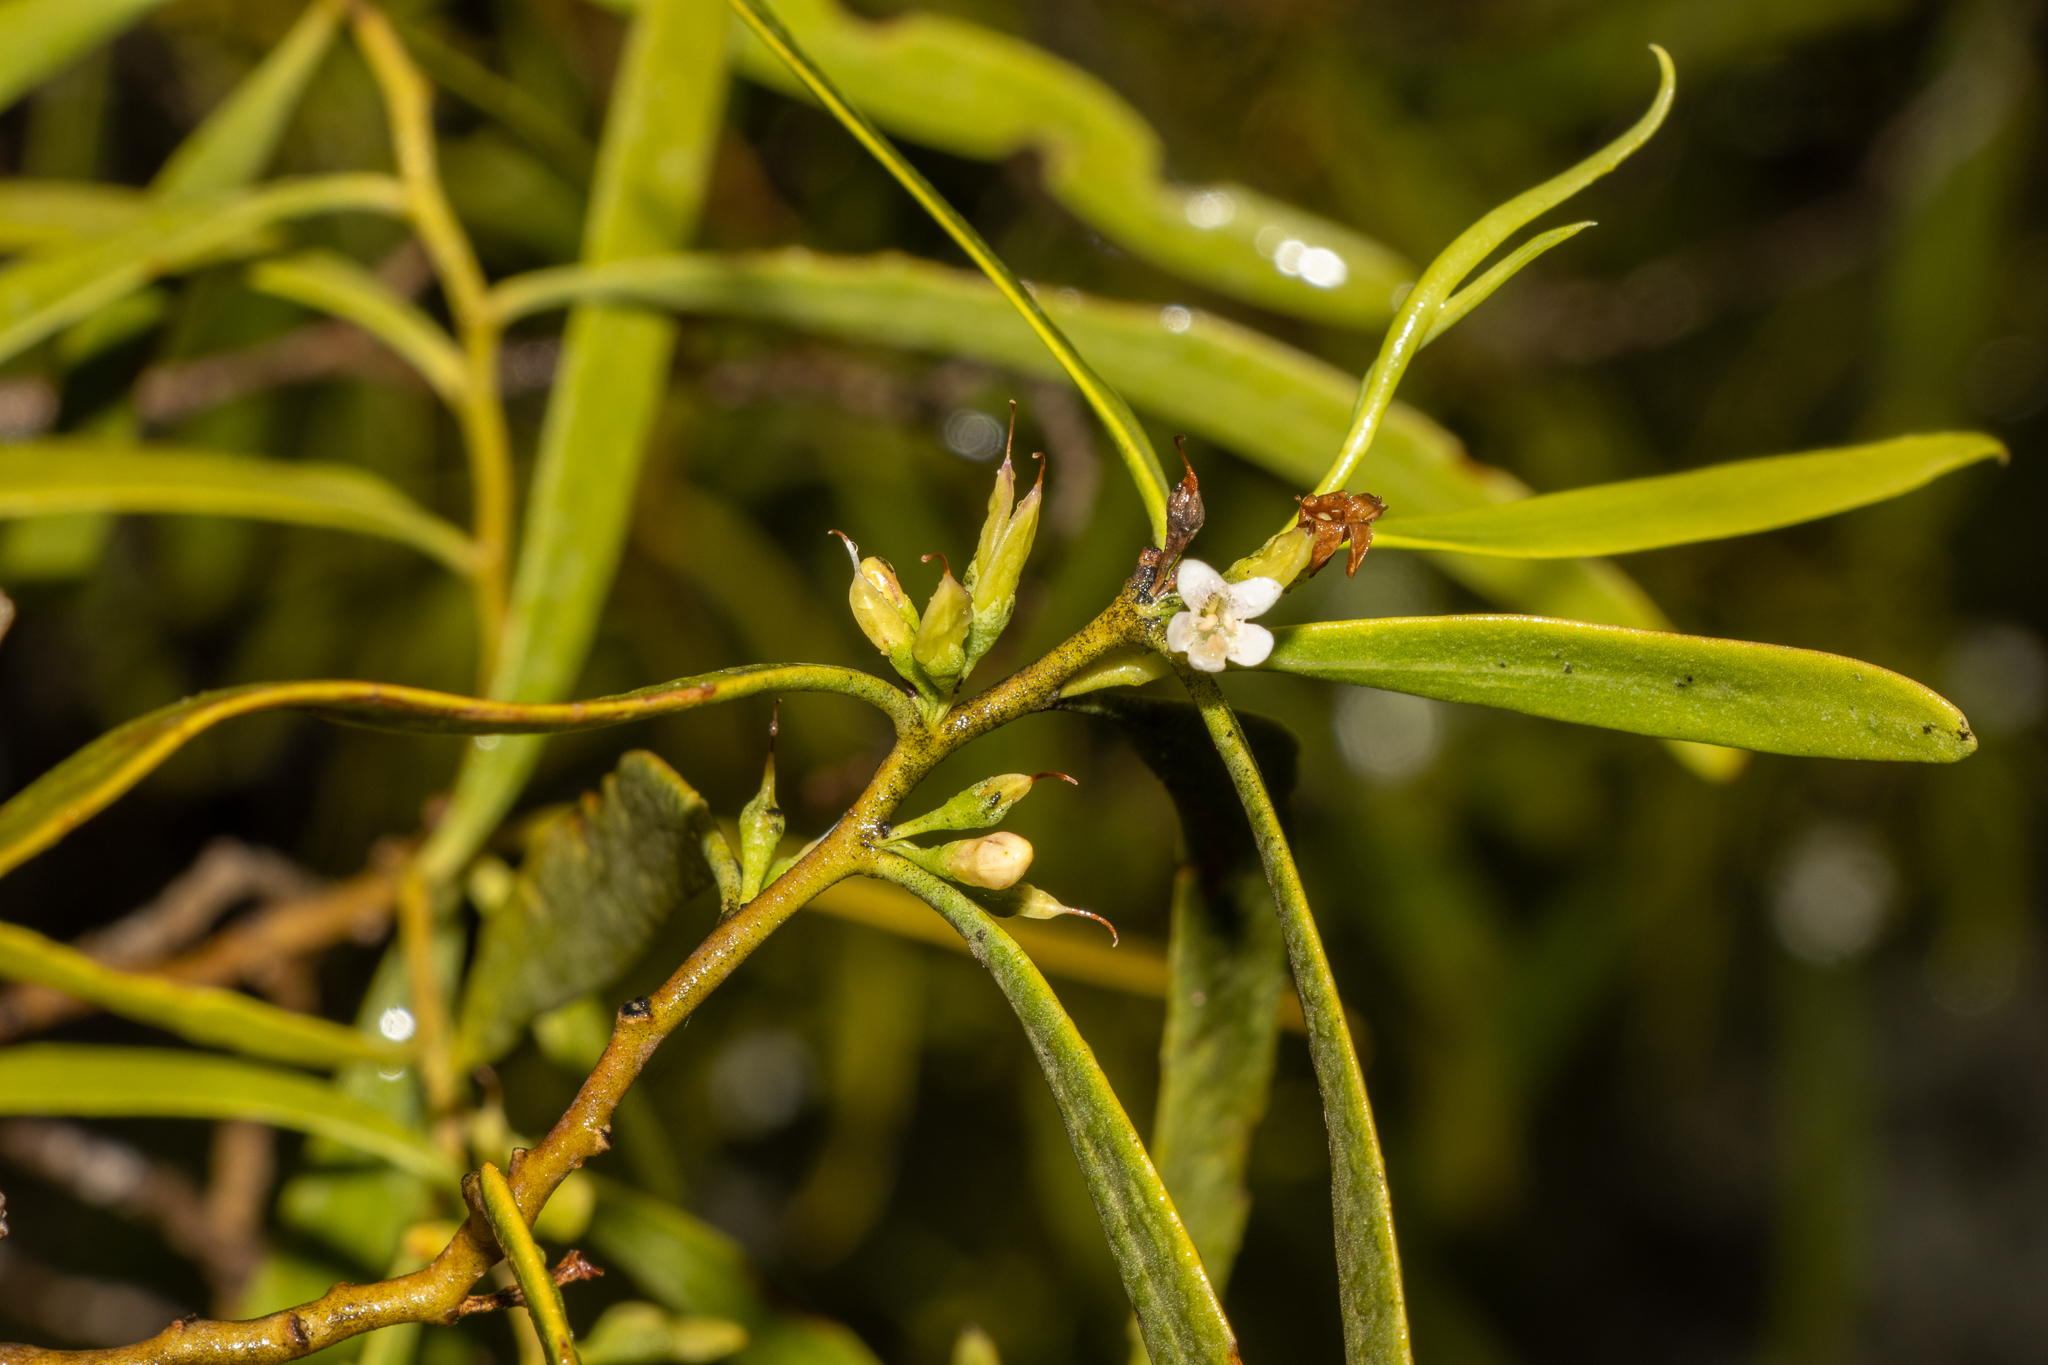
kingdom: Plantae
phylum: Tracheophyta
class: Magnoliopsida
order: Lamiales
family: Scrophulariaceae
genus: Myoporum
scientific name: Myoporum platycarpum
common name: Sugartree
